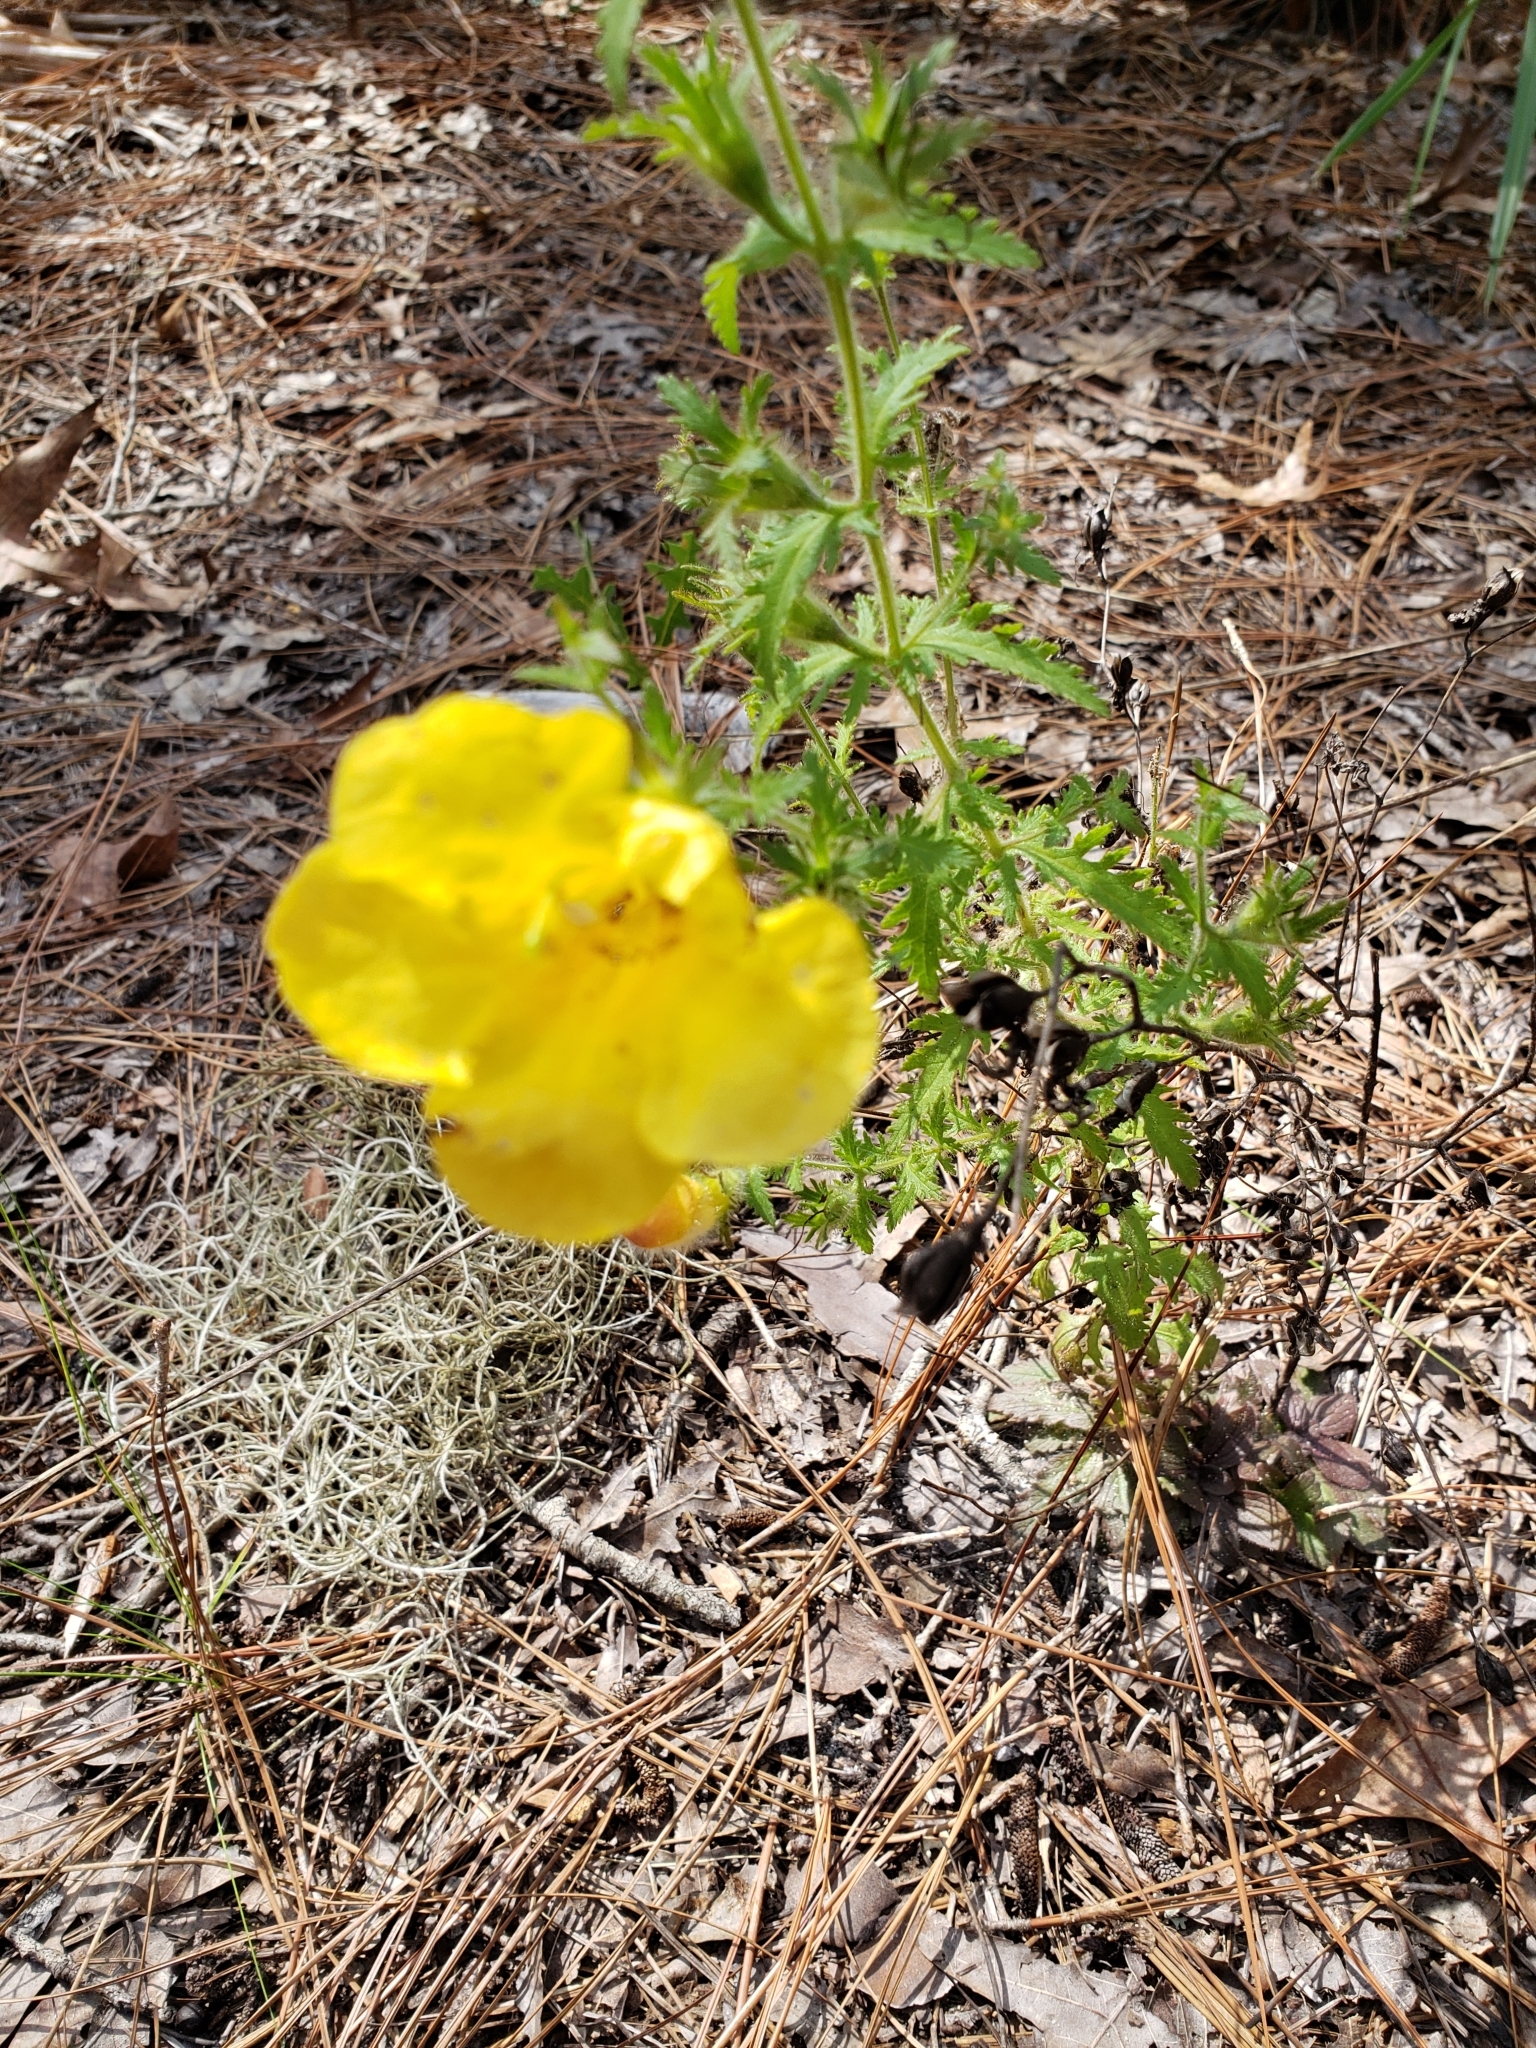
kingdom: Plantae
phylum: Tracheophyta
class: Magnoliopsida
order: Lamiales
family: Orobanchaceae
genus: Aureolaria
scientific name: Aureolaria pectinata
